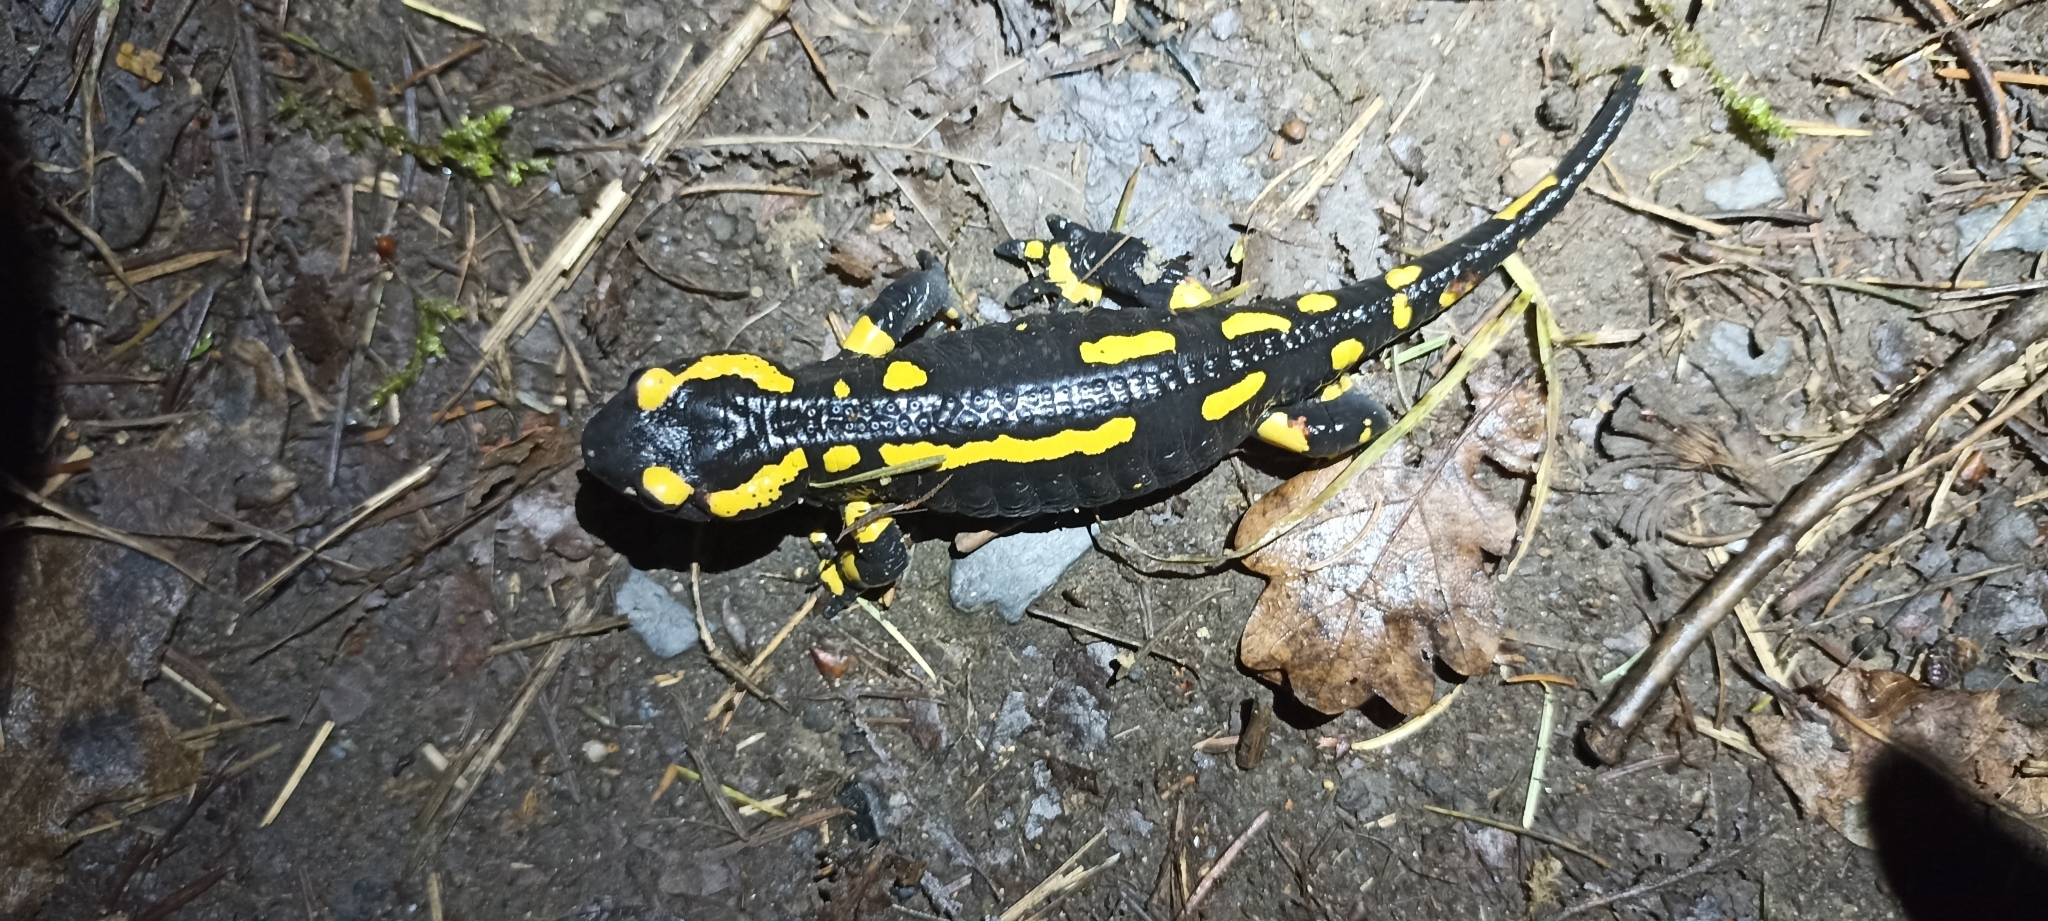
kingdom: Animalia
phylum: Chordata
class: Amphibia
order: Caudata
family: Salamandridae
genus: Salamandra
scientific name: Salamandra salamandra
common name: Fire salamander
